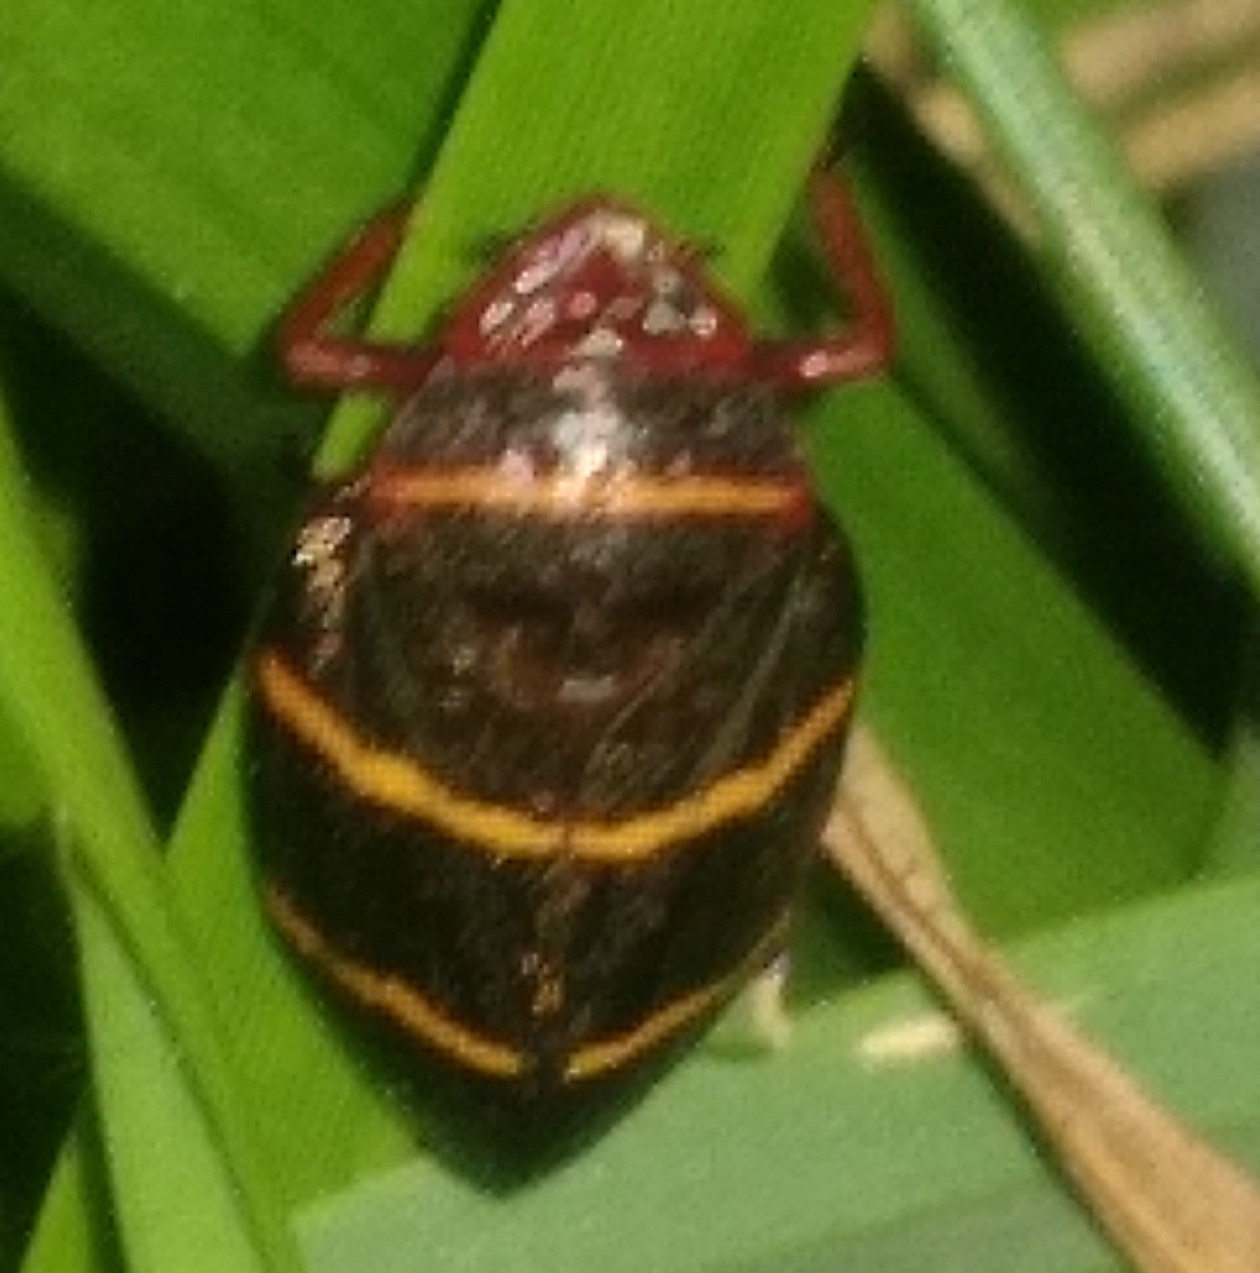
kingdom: Animalia
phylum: Arthropoda
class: Insecta
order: Hemiptera
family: Cercopidae
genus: Prosapia
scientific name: Prosapia bicincta
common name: Twolined spittlebug
